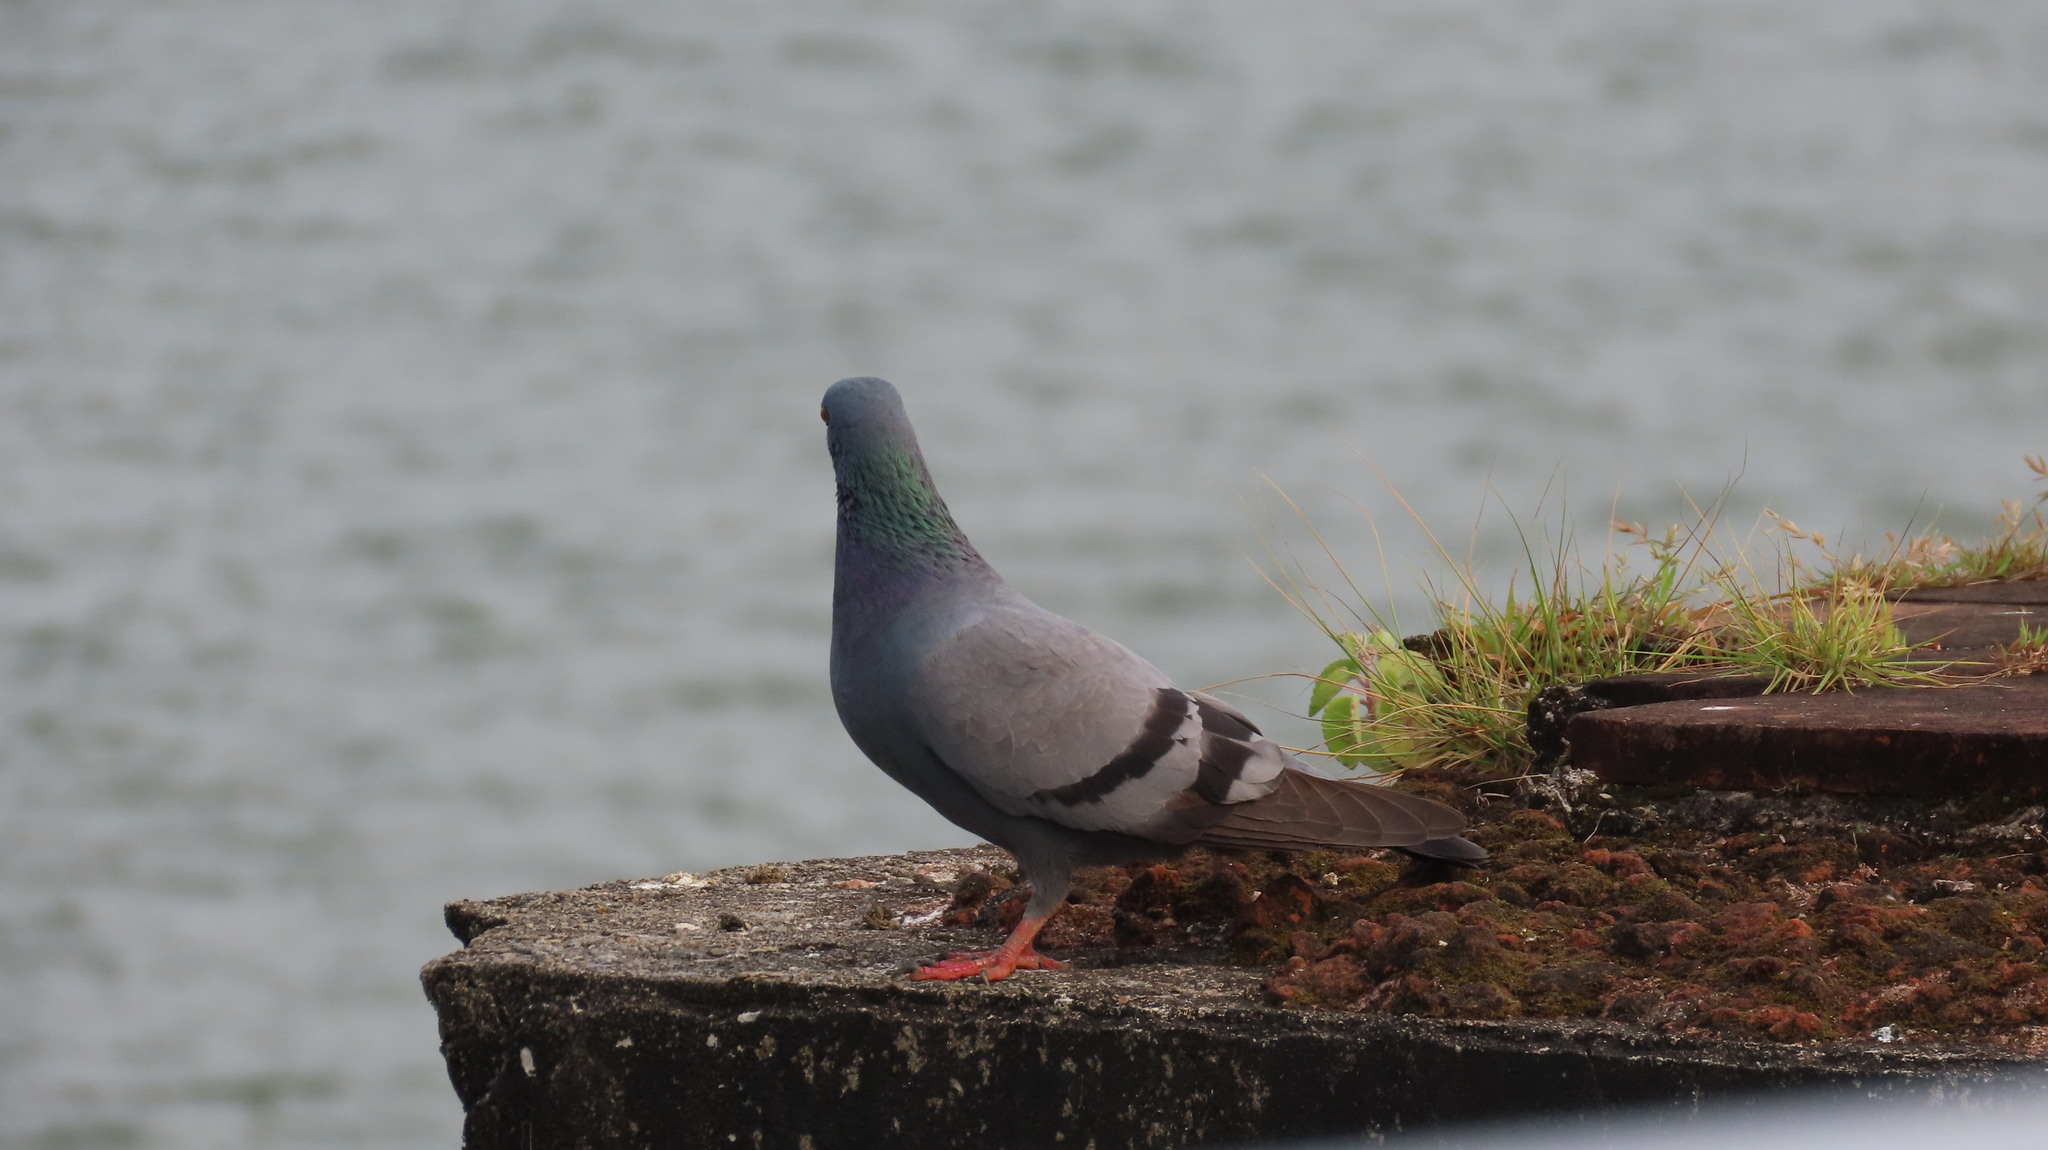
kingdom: Animalia
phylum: Chordata
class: Aves
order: Columbiformes
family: Columbidae
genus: Columba
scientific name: Columba livia
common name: Rock pigeon
